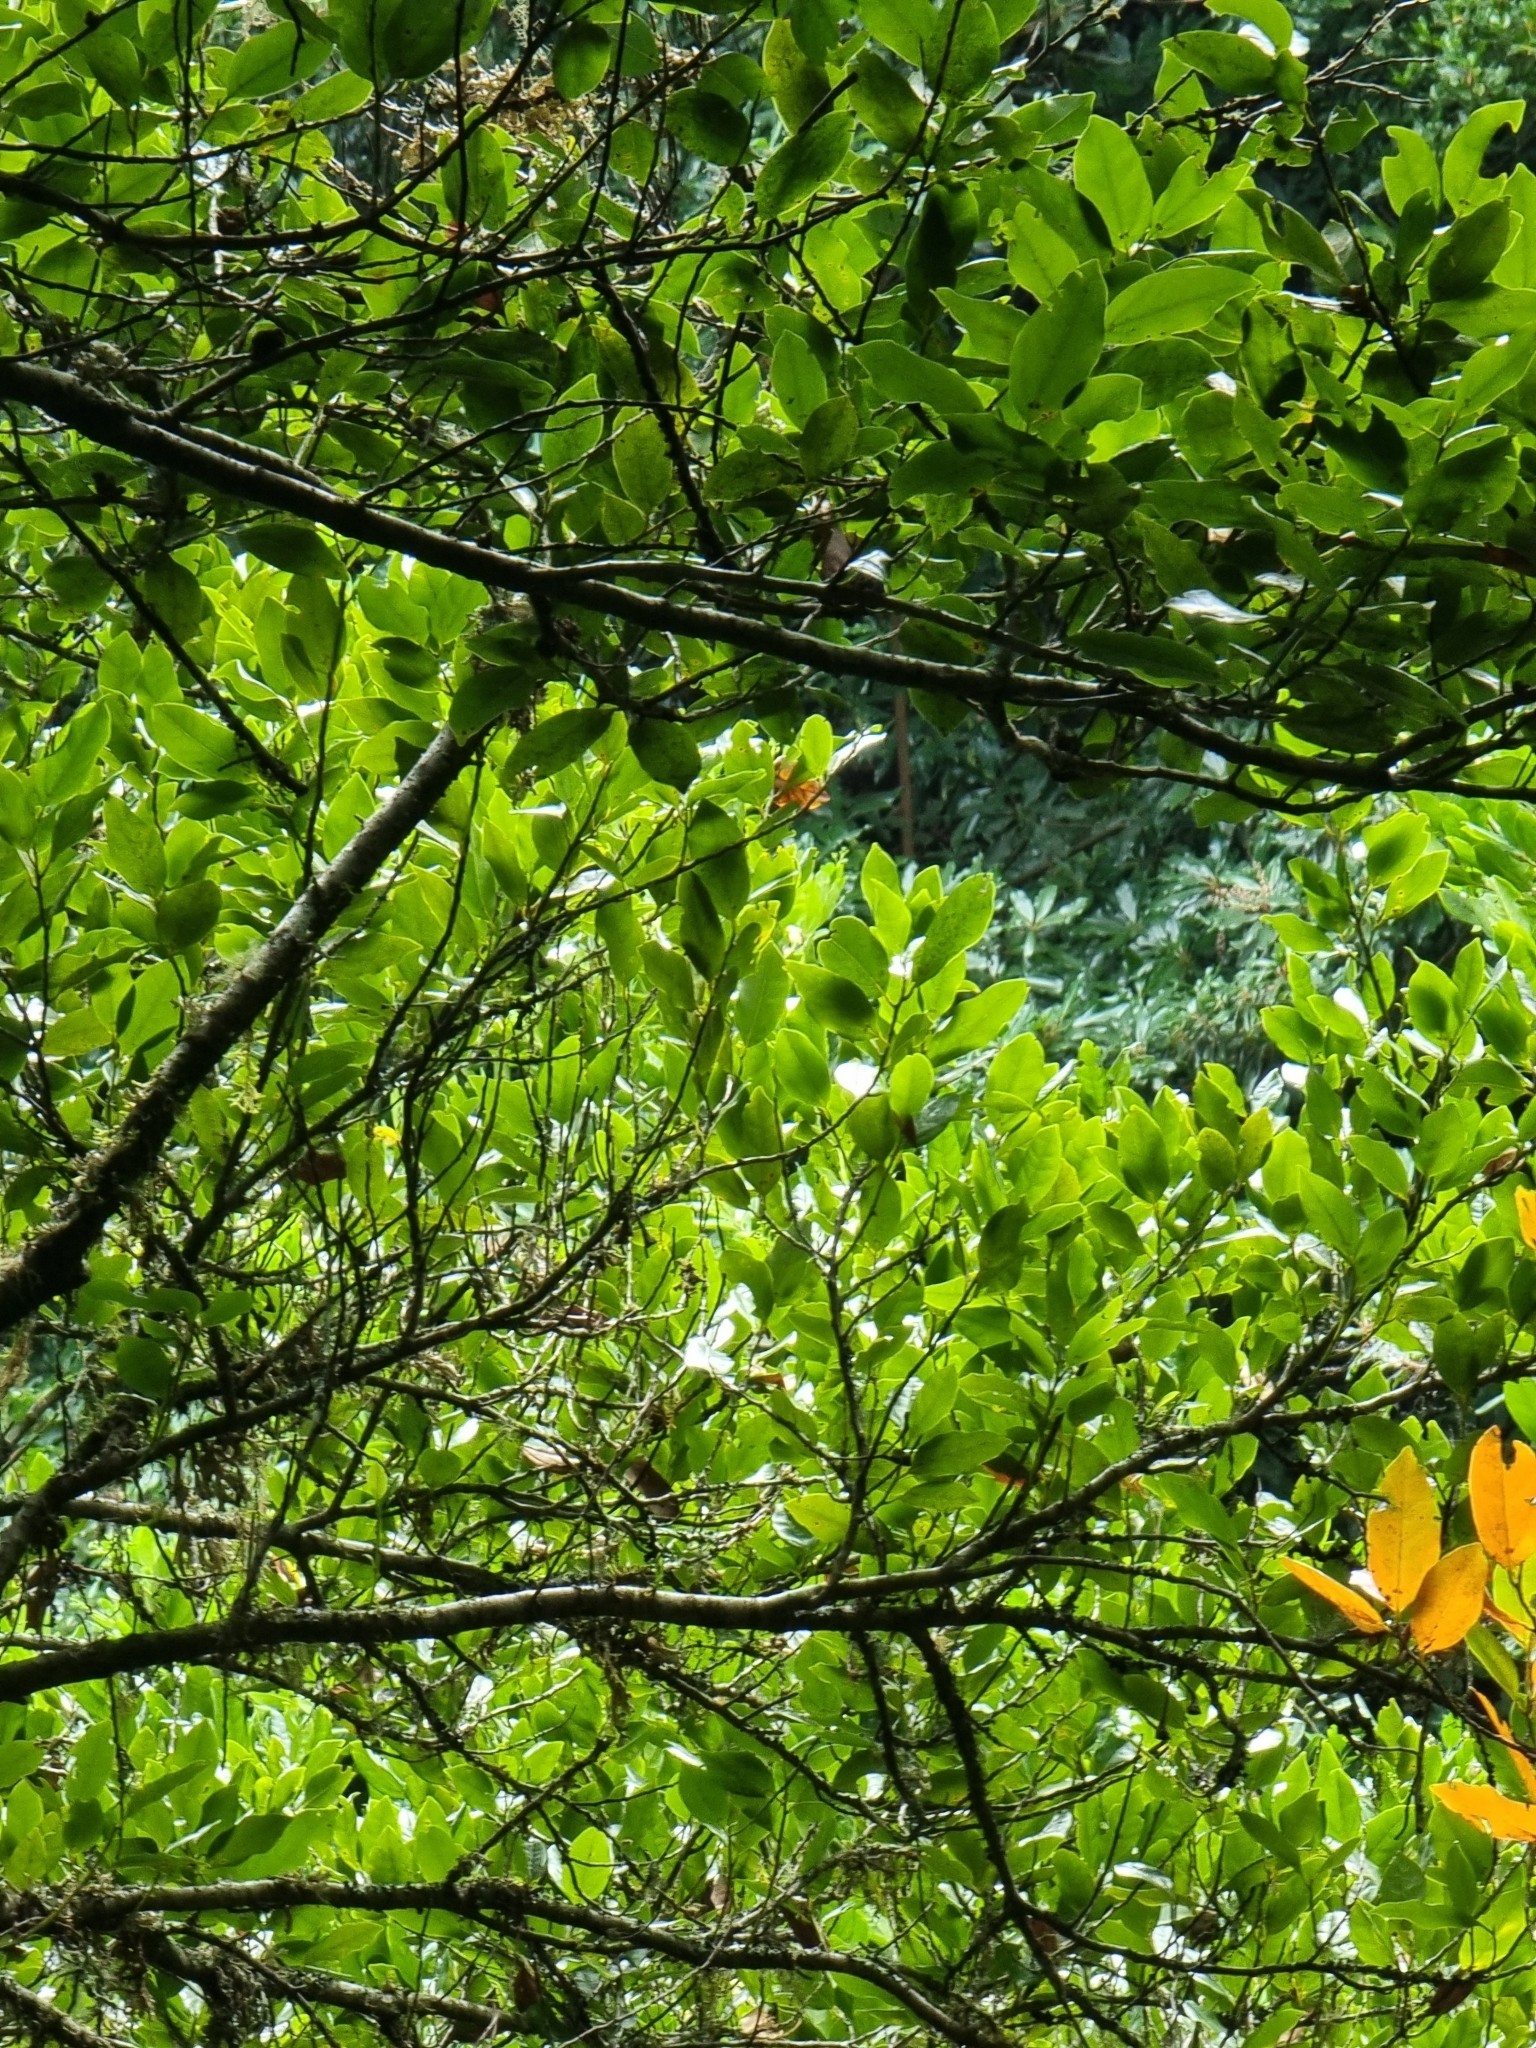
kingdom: Plantae
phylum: Tracheophyta
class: Magnoliopsida
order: Laurales
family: Lauraceae
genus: Mespilodaphne
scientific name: Mespilodaphne foetens
